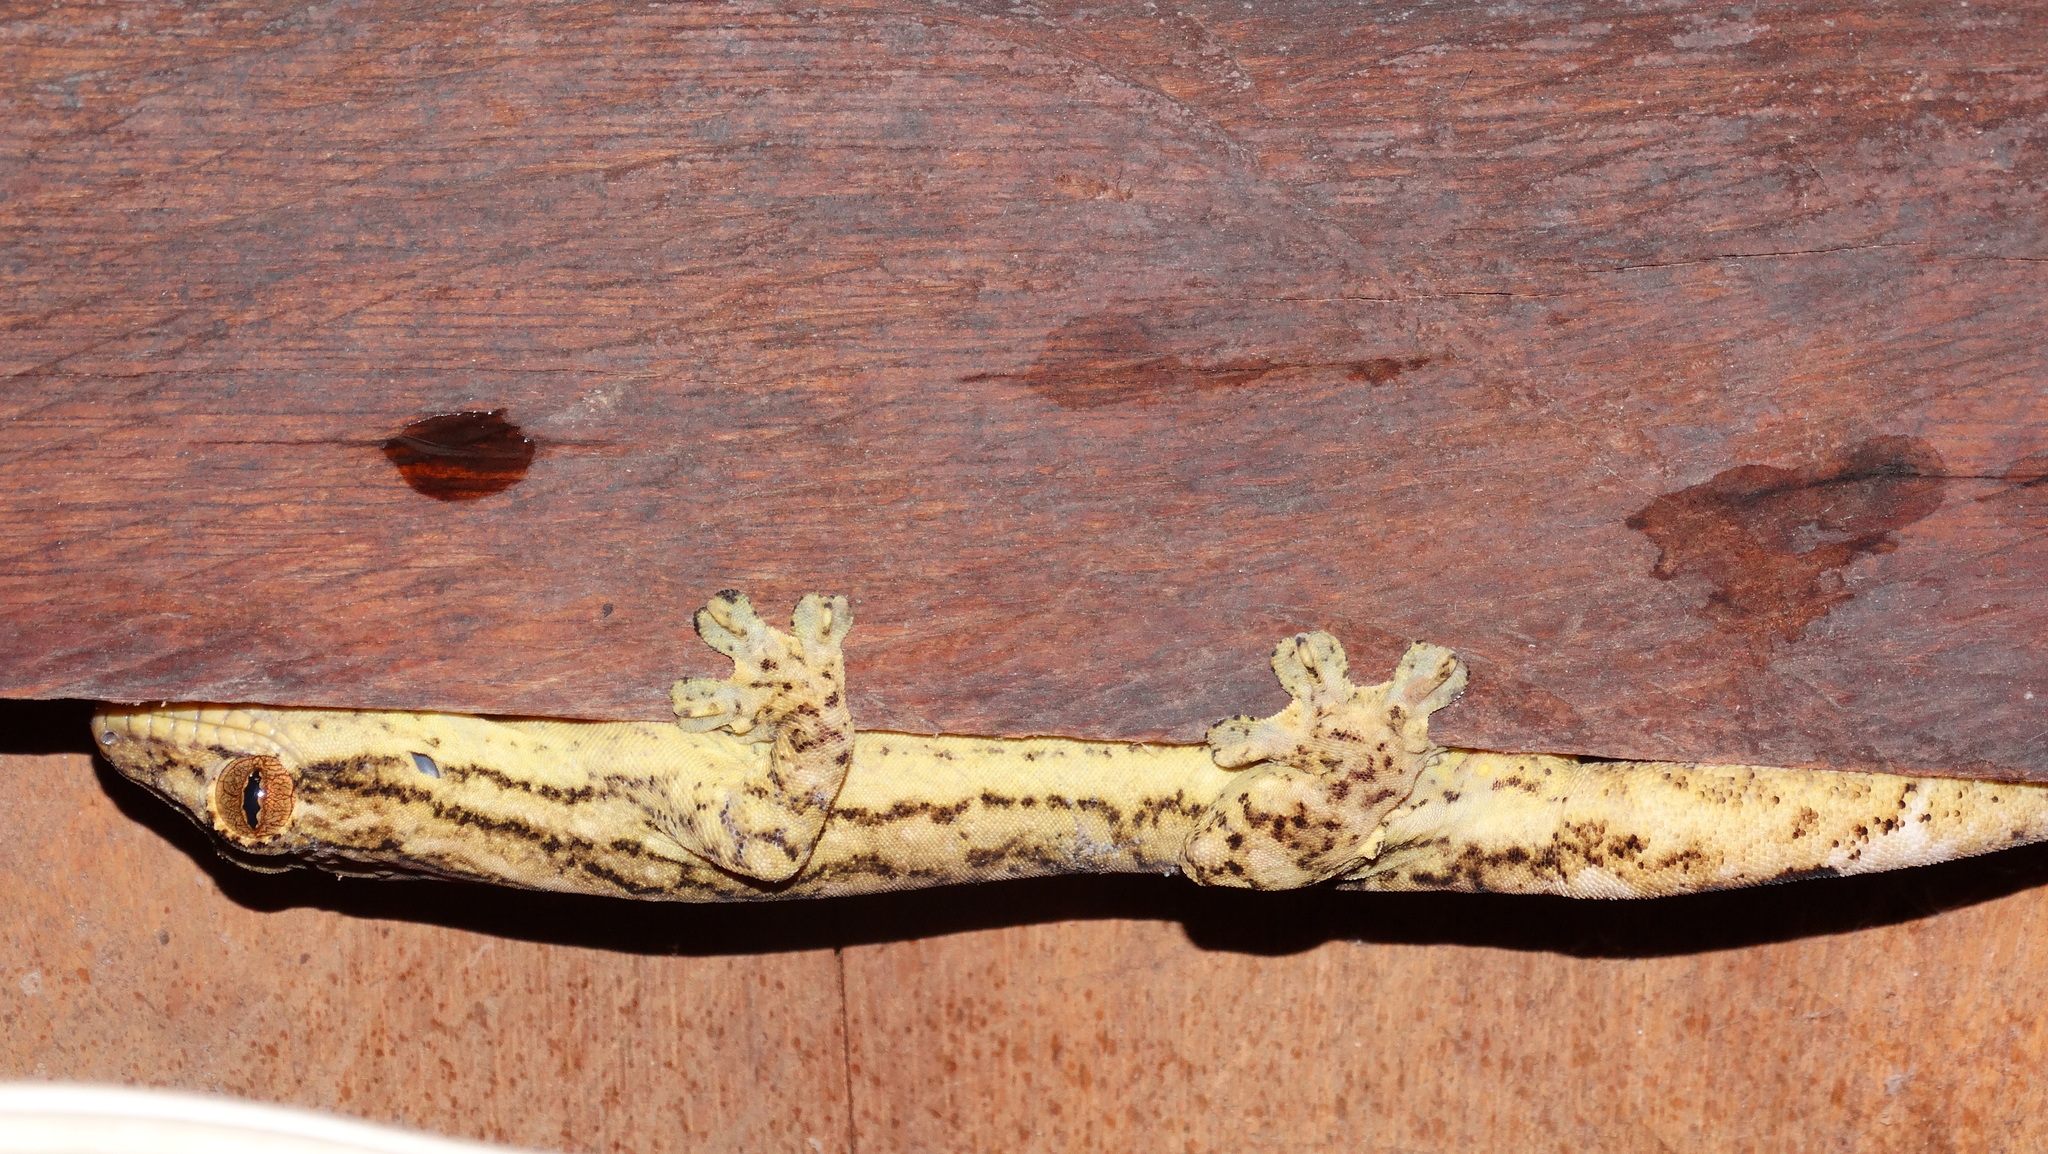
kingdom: Animalia
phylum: Chordata
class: Squamata
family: Phyllodactylidae
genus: Thecadactylus
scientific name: Thecadactylus solimoensis
